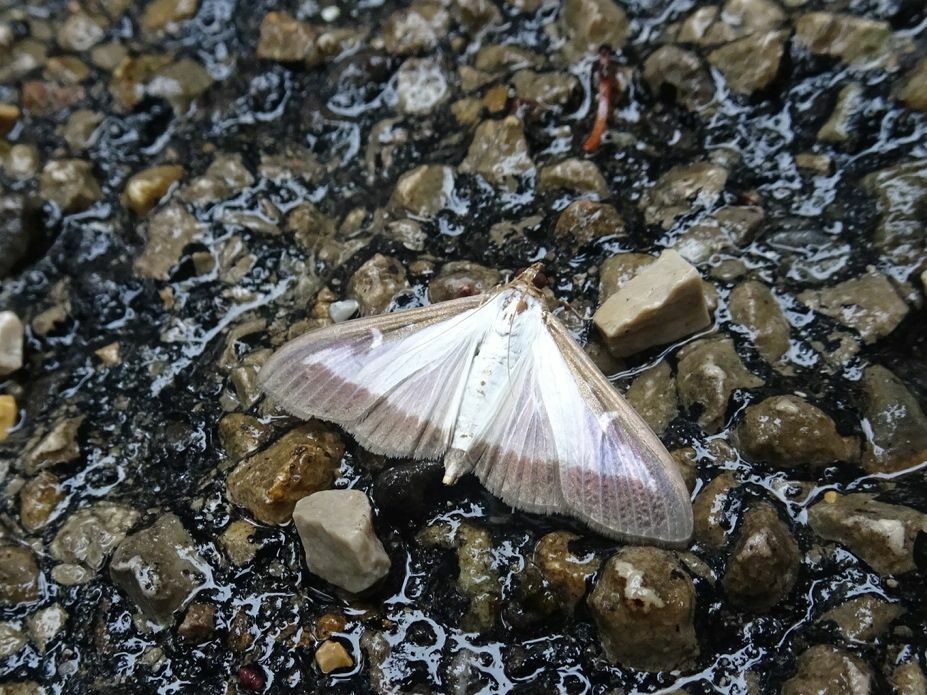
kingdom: Animalia
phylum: Arthropoda
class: Insecta
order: Lepidoptera
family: Crambidae
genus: Cydalima
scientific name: Cydalima perspectalis
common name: Box tree moth
